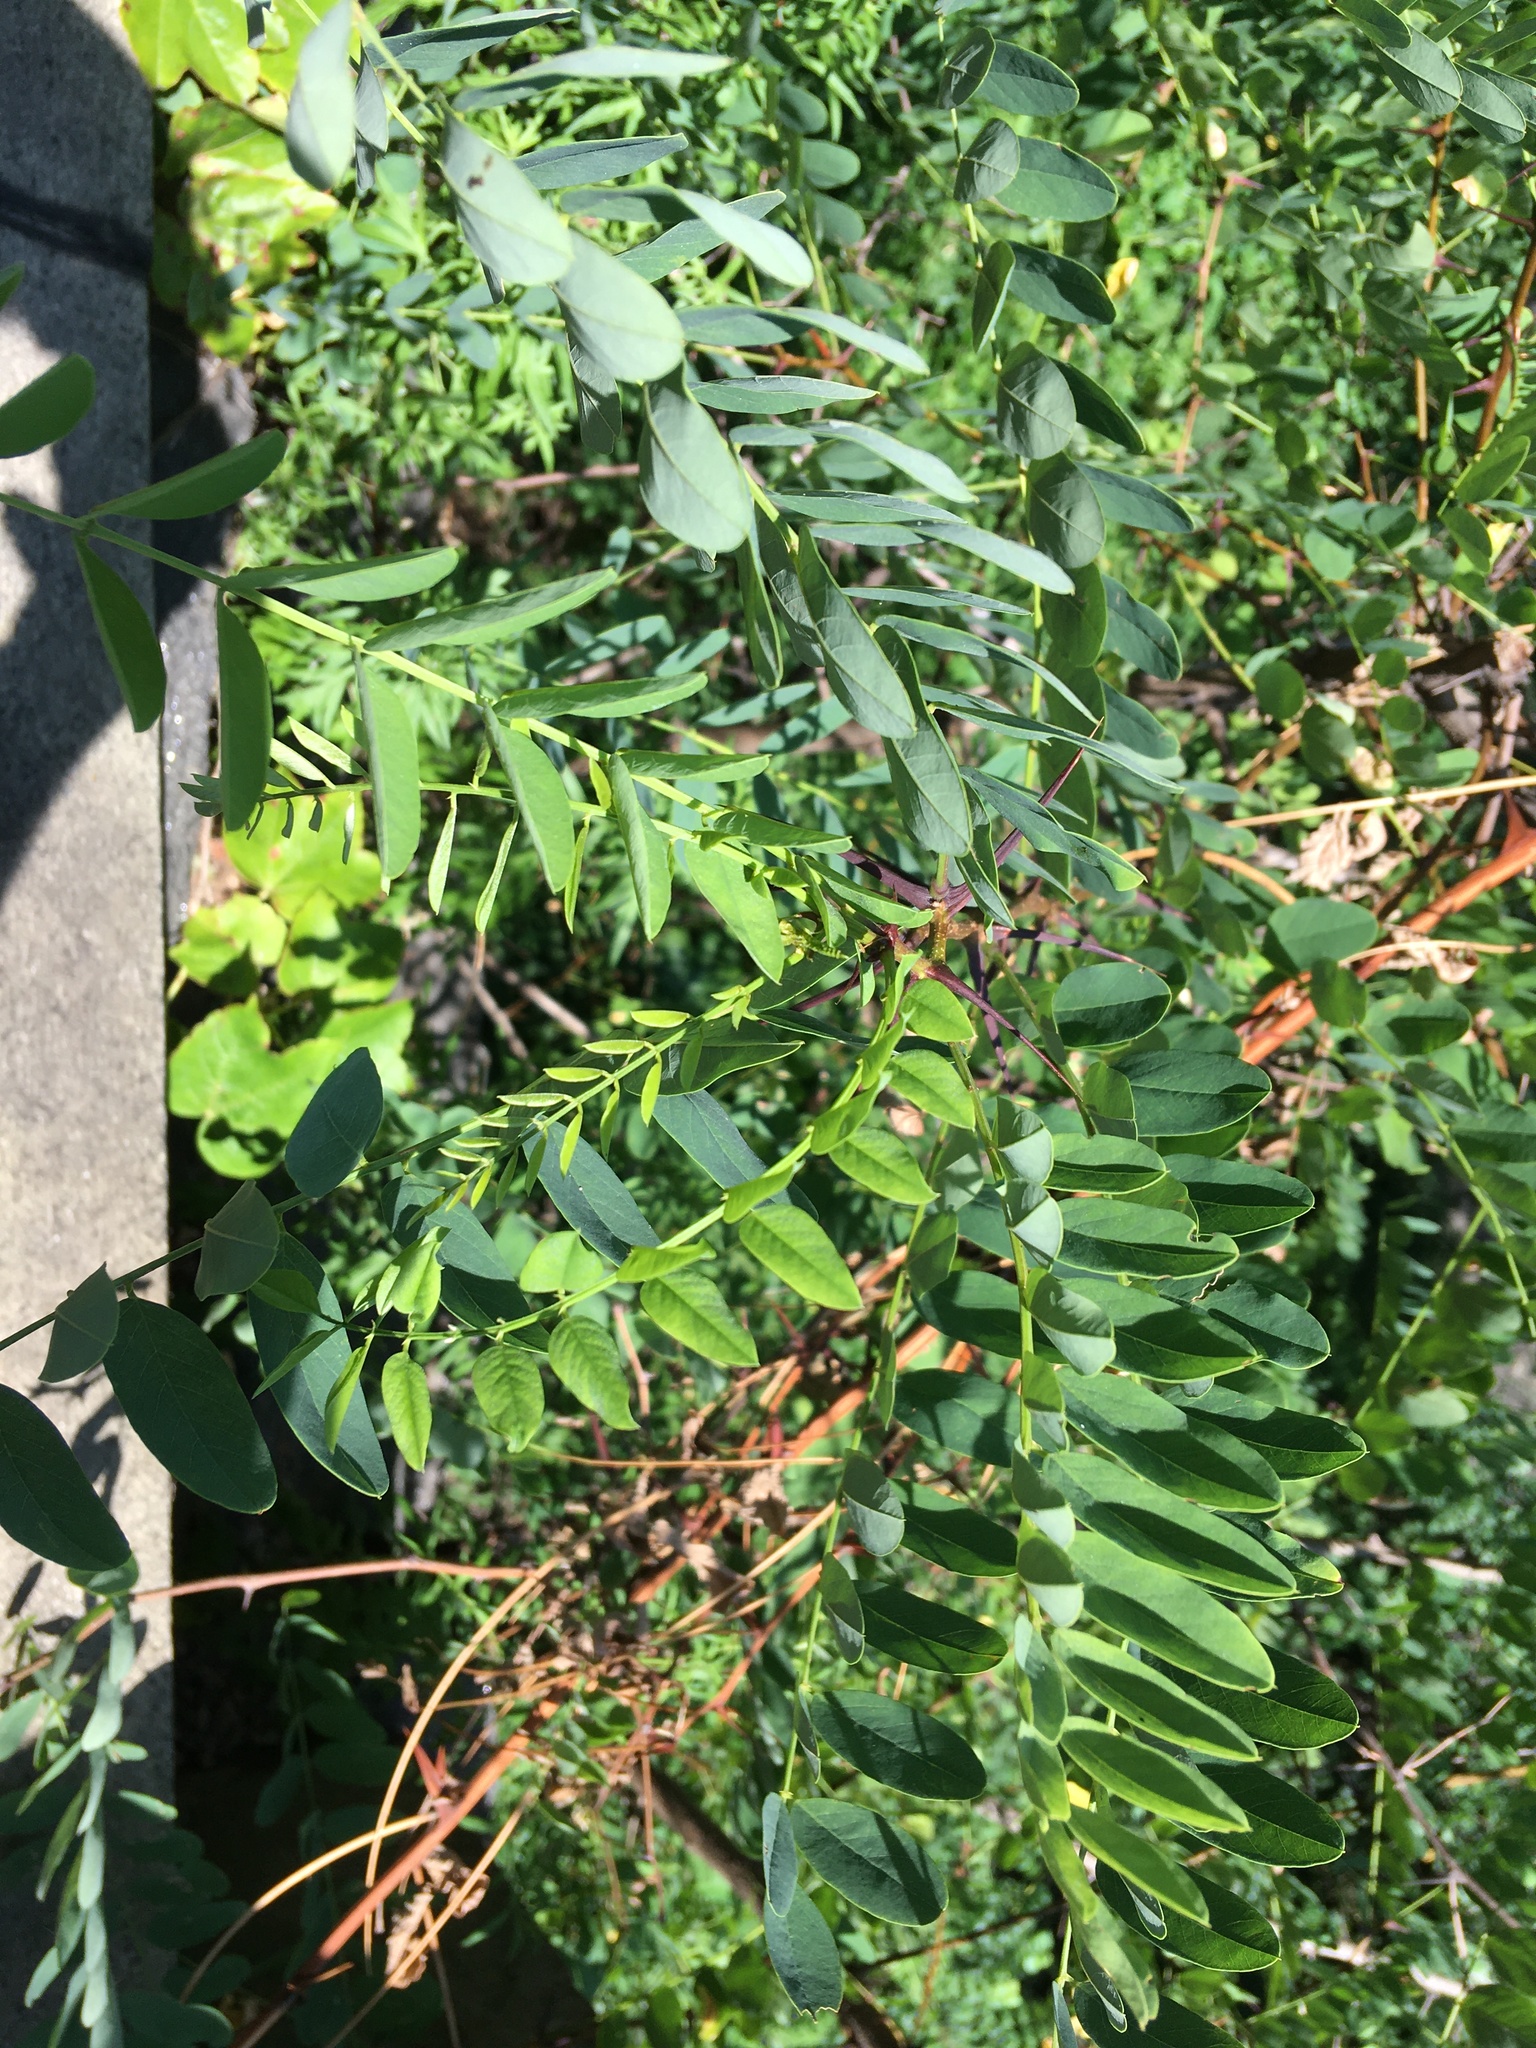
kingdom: Plantae
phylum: Tracheophyta
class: Magnoliopsida
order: Fabales
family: Fabaceae
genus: Robinia
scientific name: Robinia pseudoacacia
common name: Black locust
